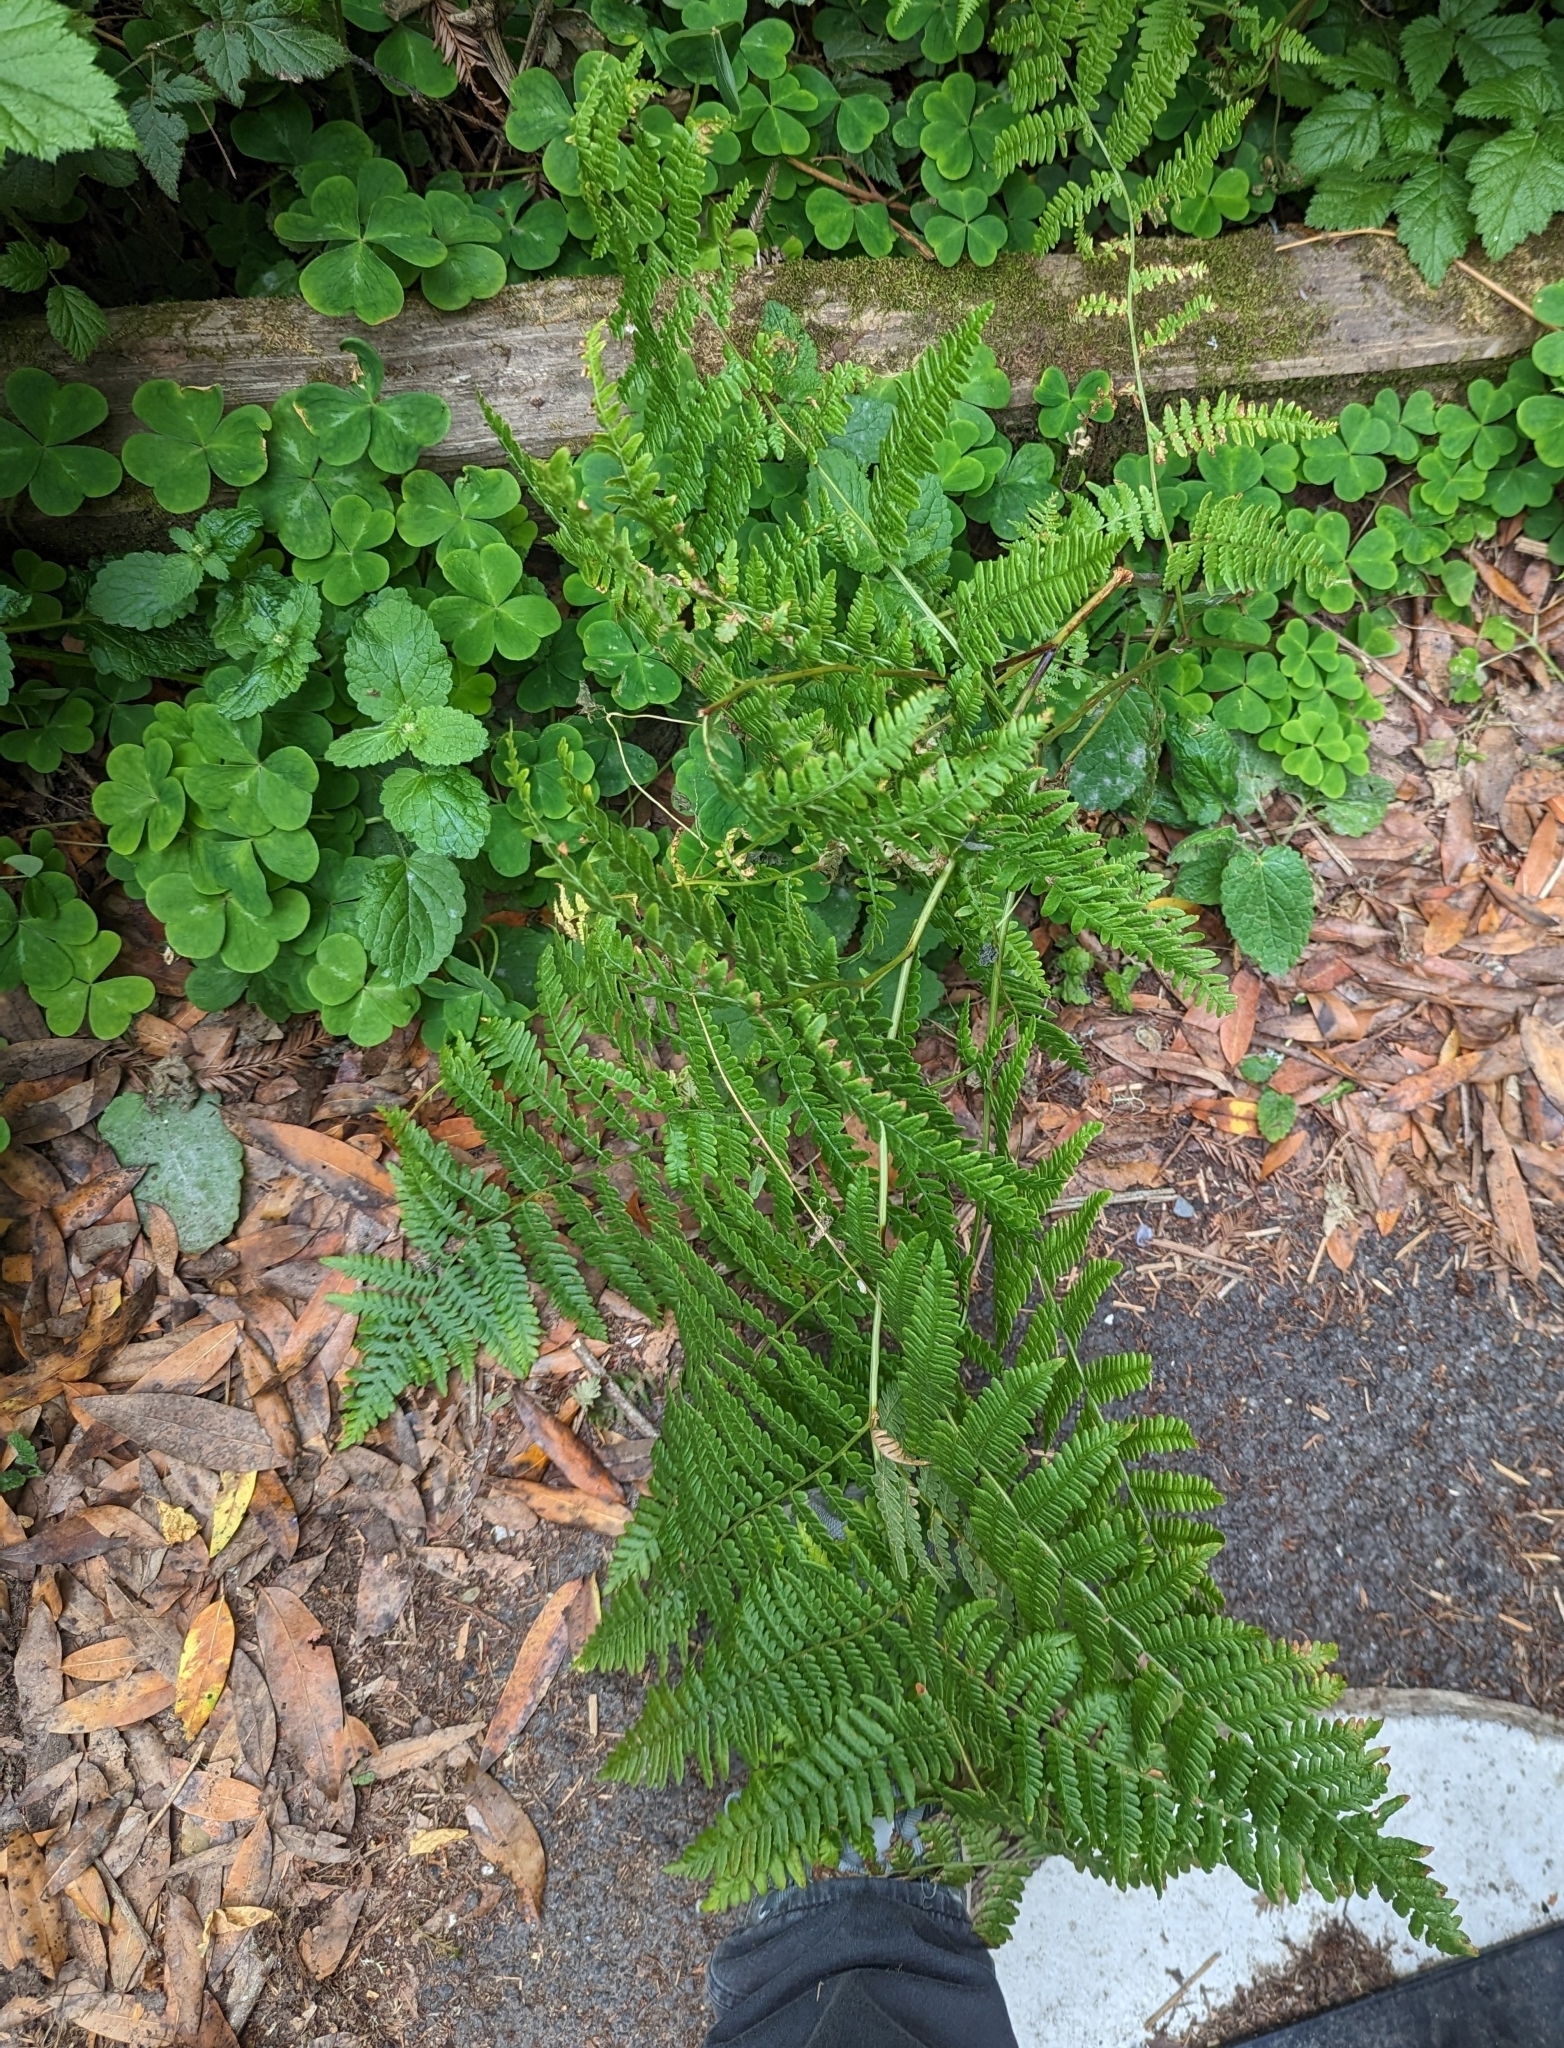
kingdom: Plantae
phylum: Tracheophyta
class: Polypodiopsida
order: Polypodiales
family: Dennstaedtiaceae
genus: Pteridium
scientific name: Pteridium aquilinum
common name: Bracken
